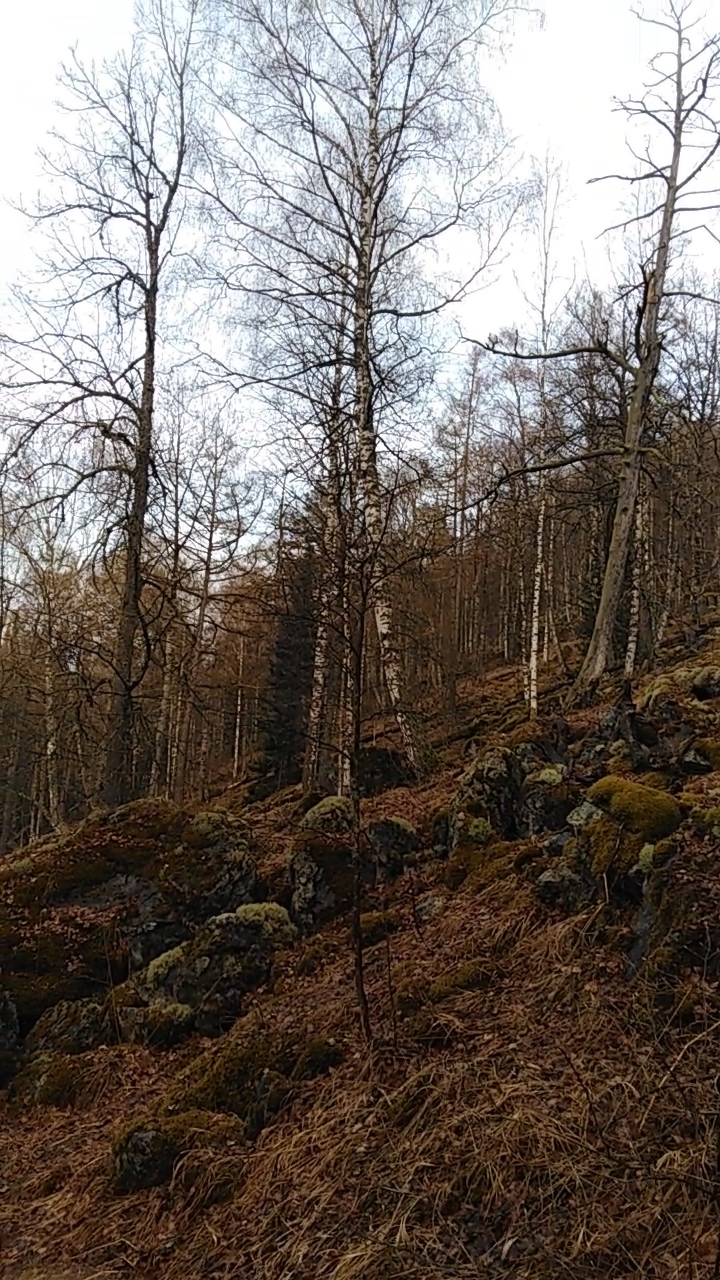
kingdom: Animalia
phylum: Chordata
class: Aves
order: Cuculiformes
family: Cuculidae
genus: Cuculus
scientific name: Cuculus canorus
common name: Common cuckoo
